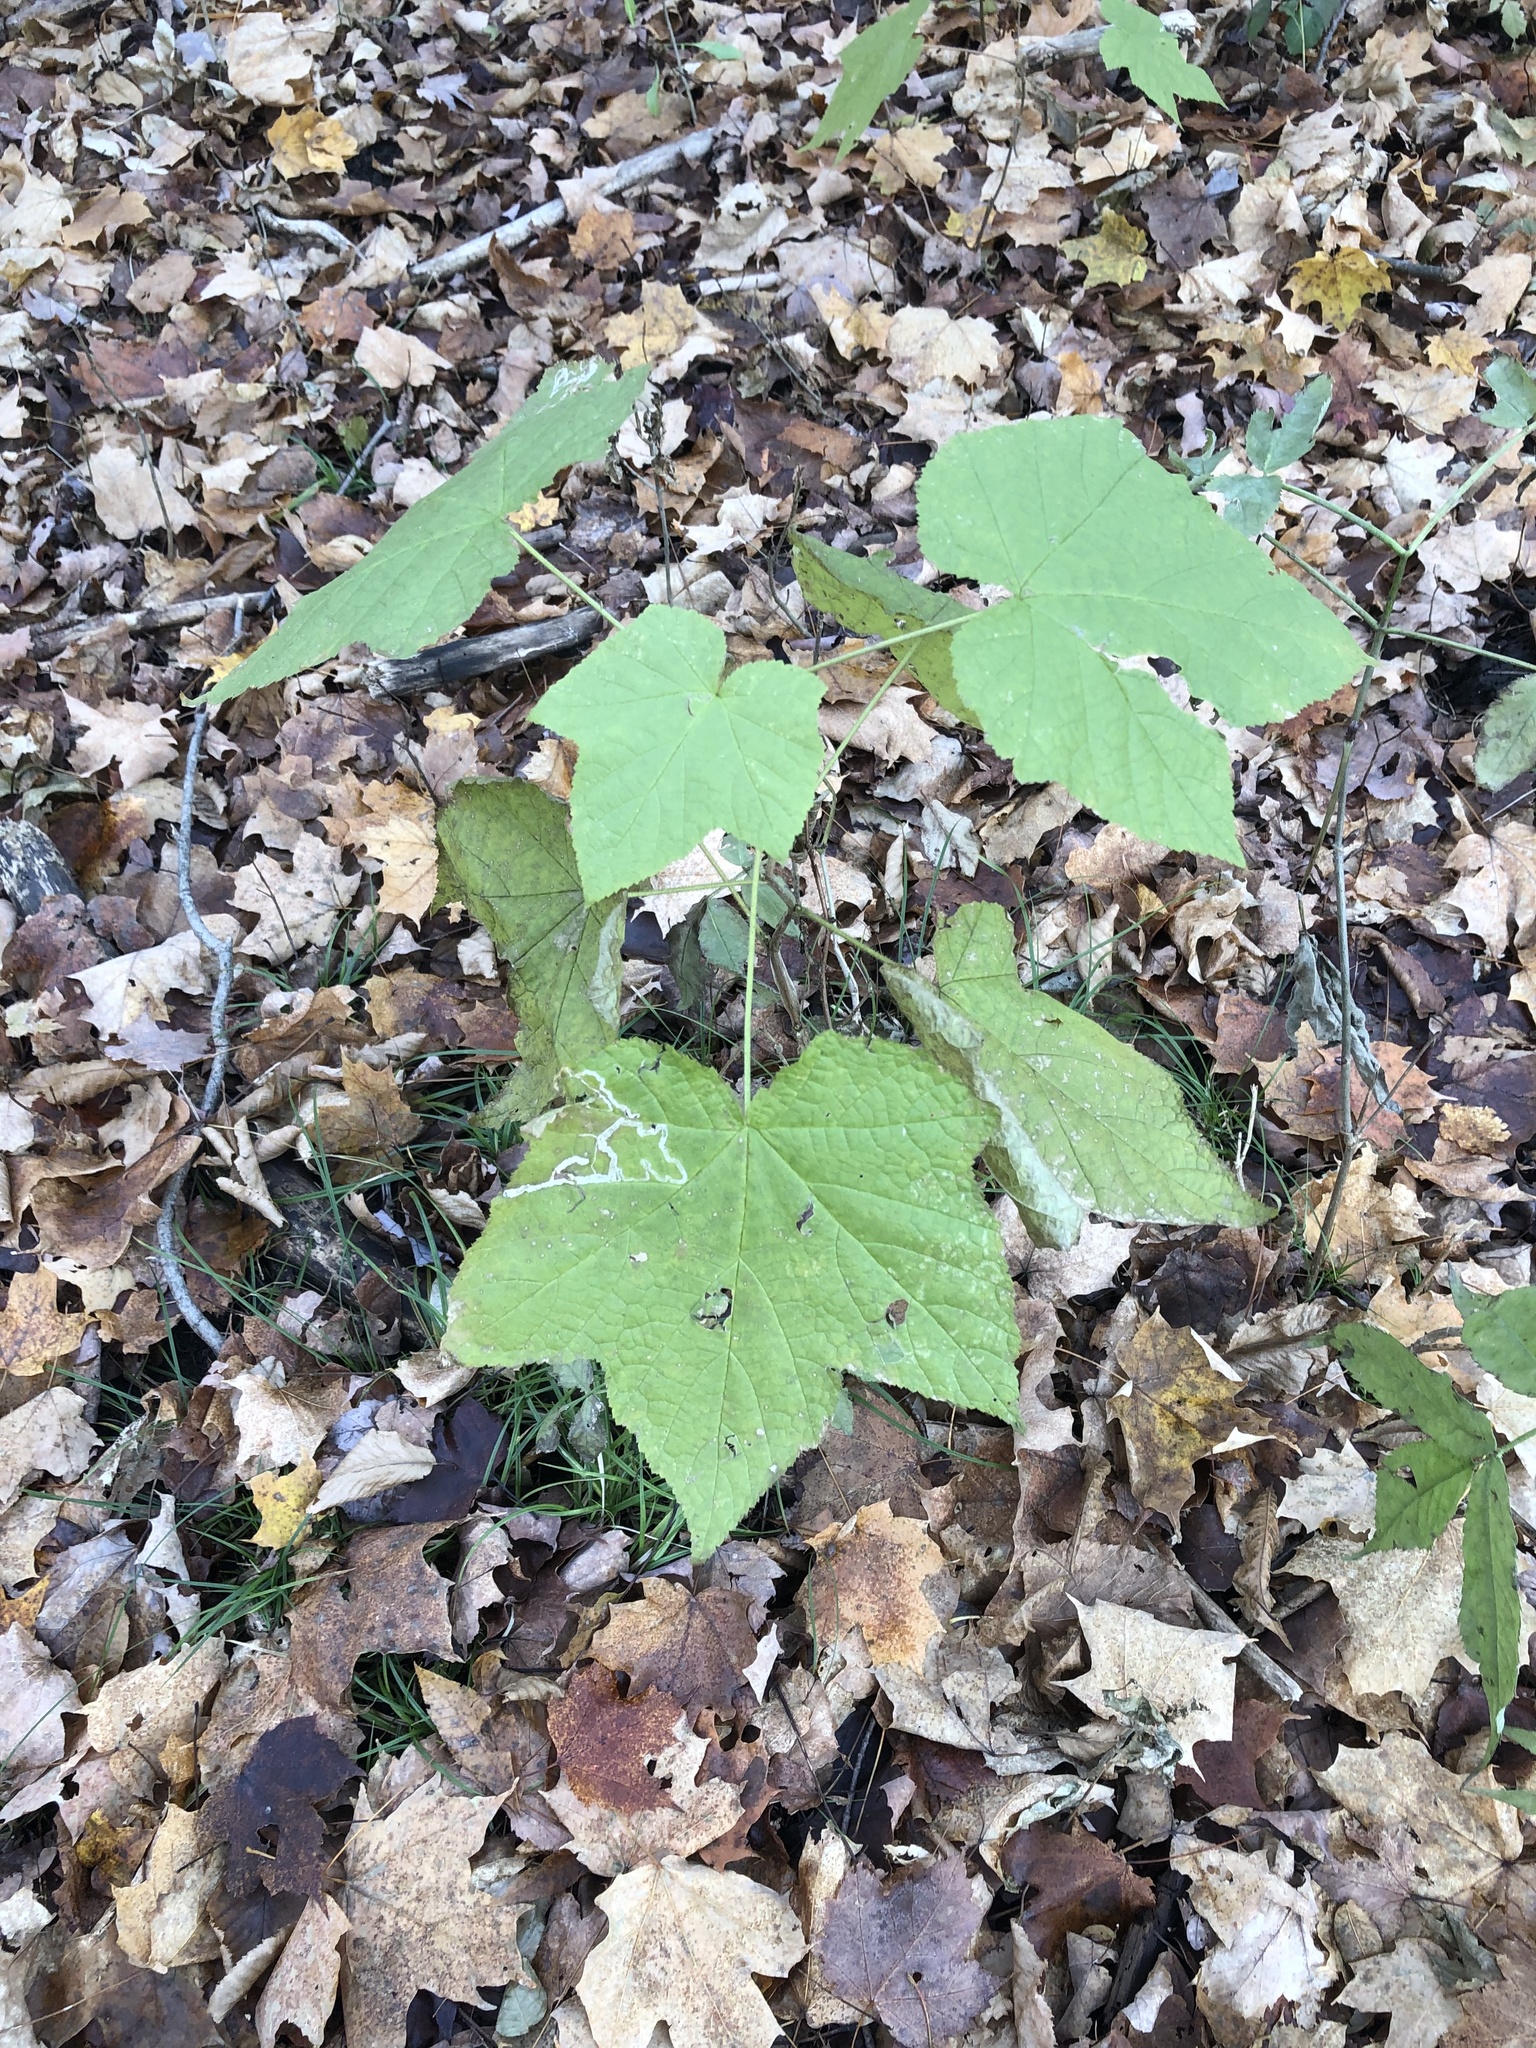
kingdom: Plantae
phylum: Tracheophyta
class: Magnoliopsida
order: Rosales
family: Rosaceae
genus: Rubus
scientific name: Rubus odoratus
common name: Purple-flowered raspberry
